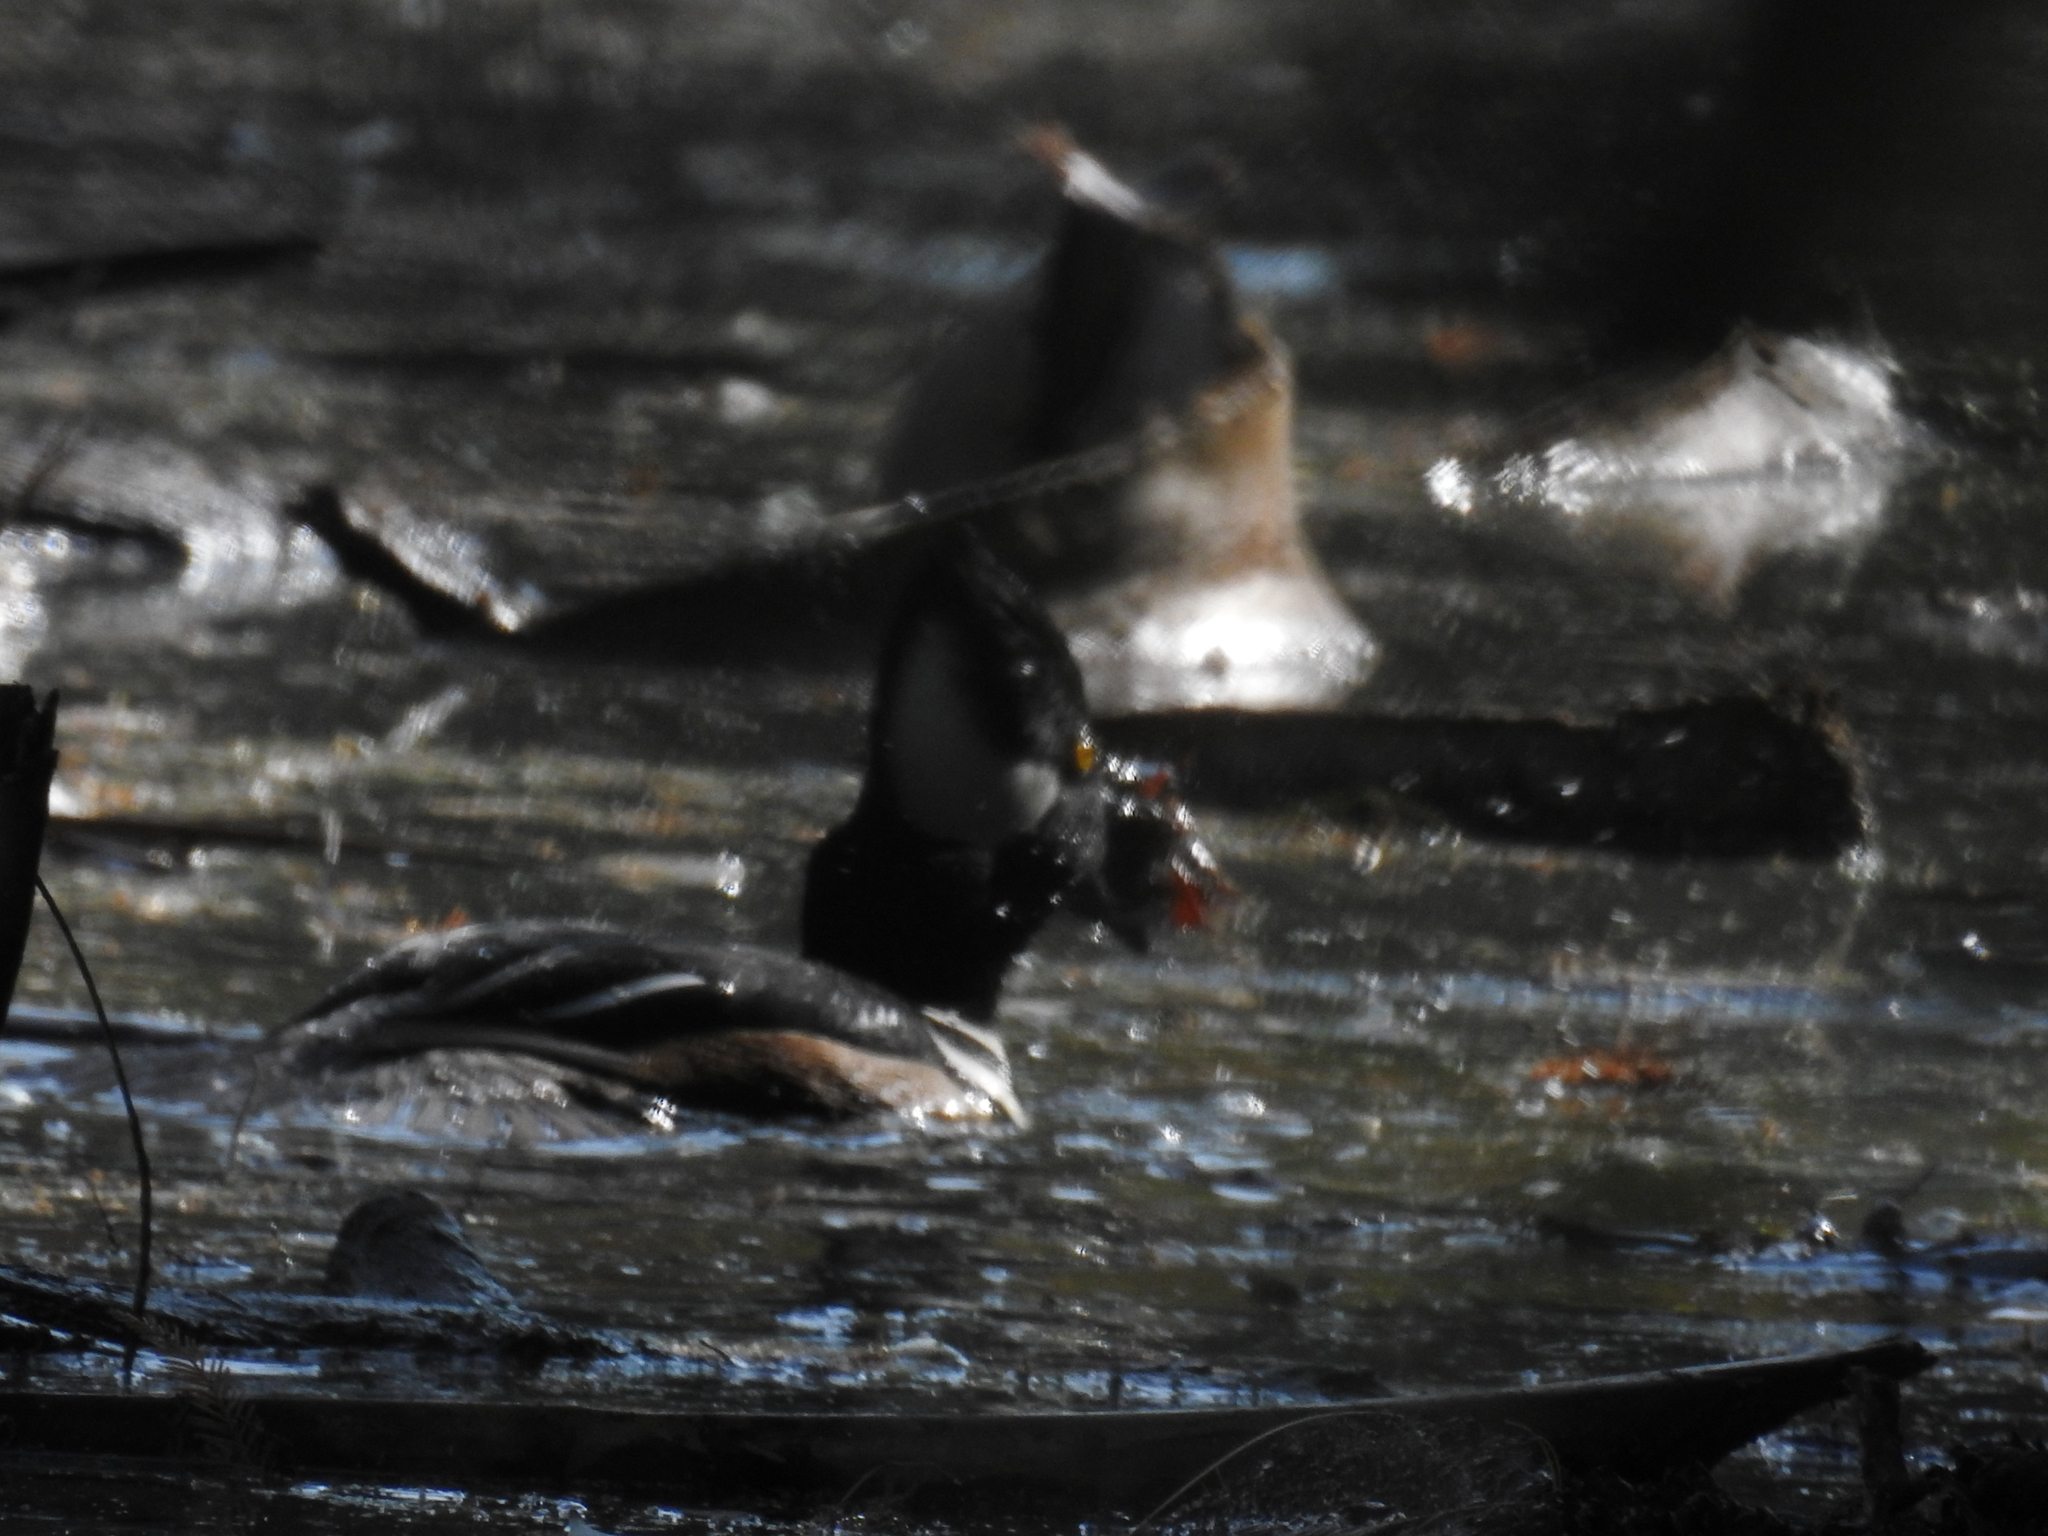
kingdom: Animalia
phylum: Chordata
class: Aves
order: Anseriformes
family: Anatidae
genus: Lophodytes
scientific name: Lophodytes cucullatus
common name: Hooded merganser
